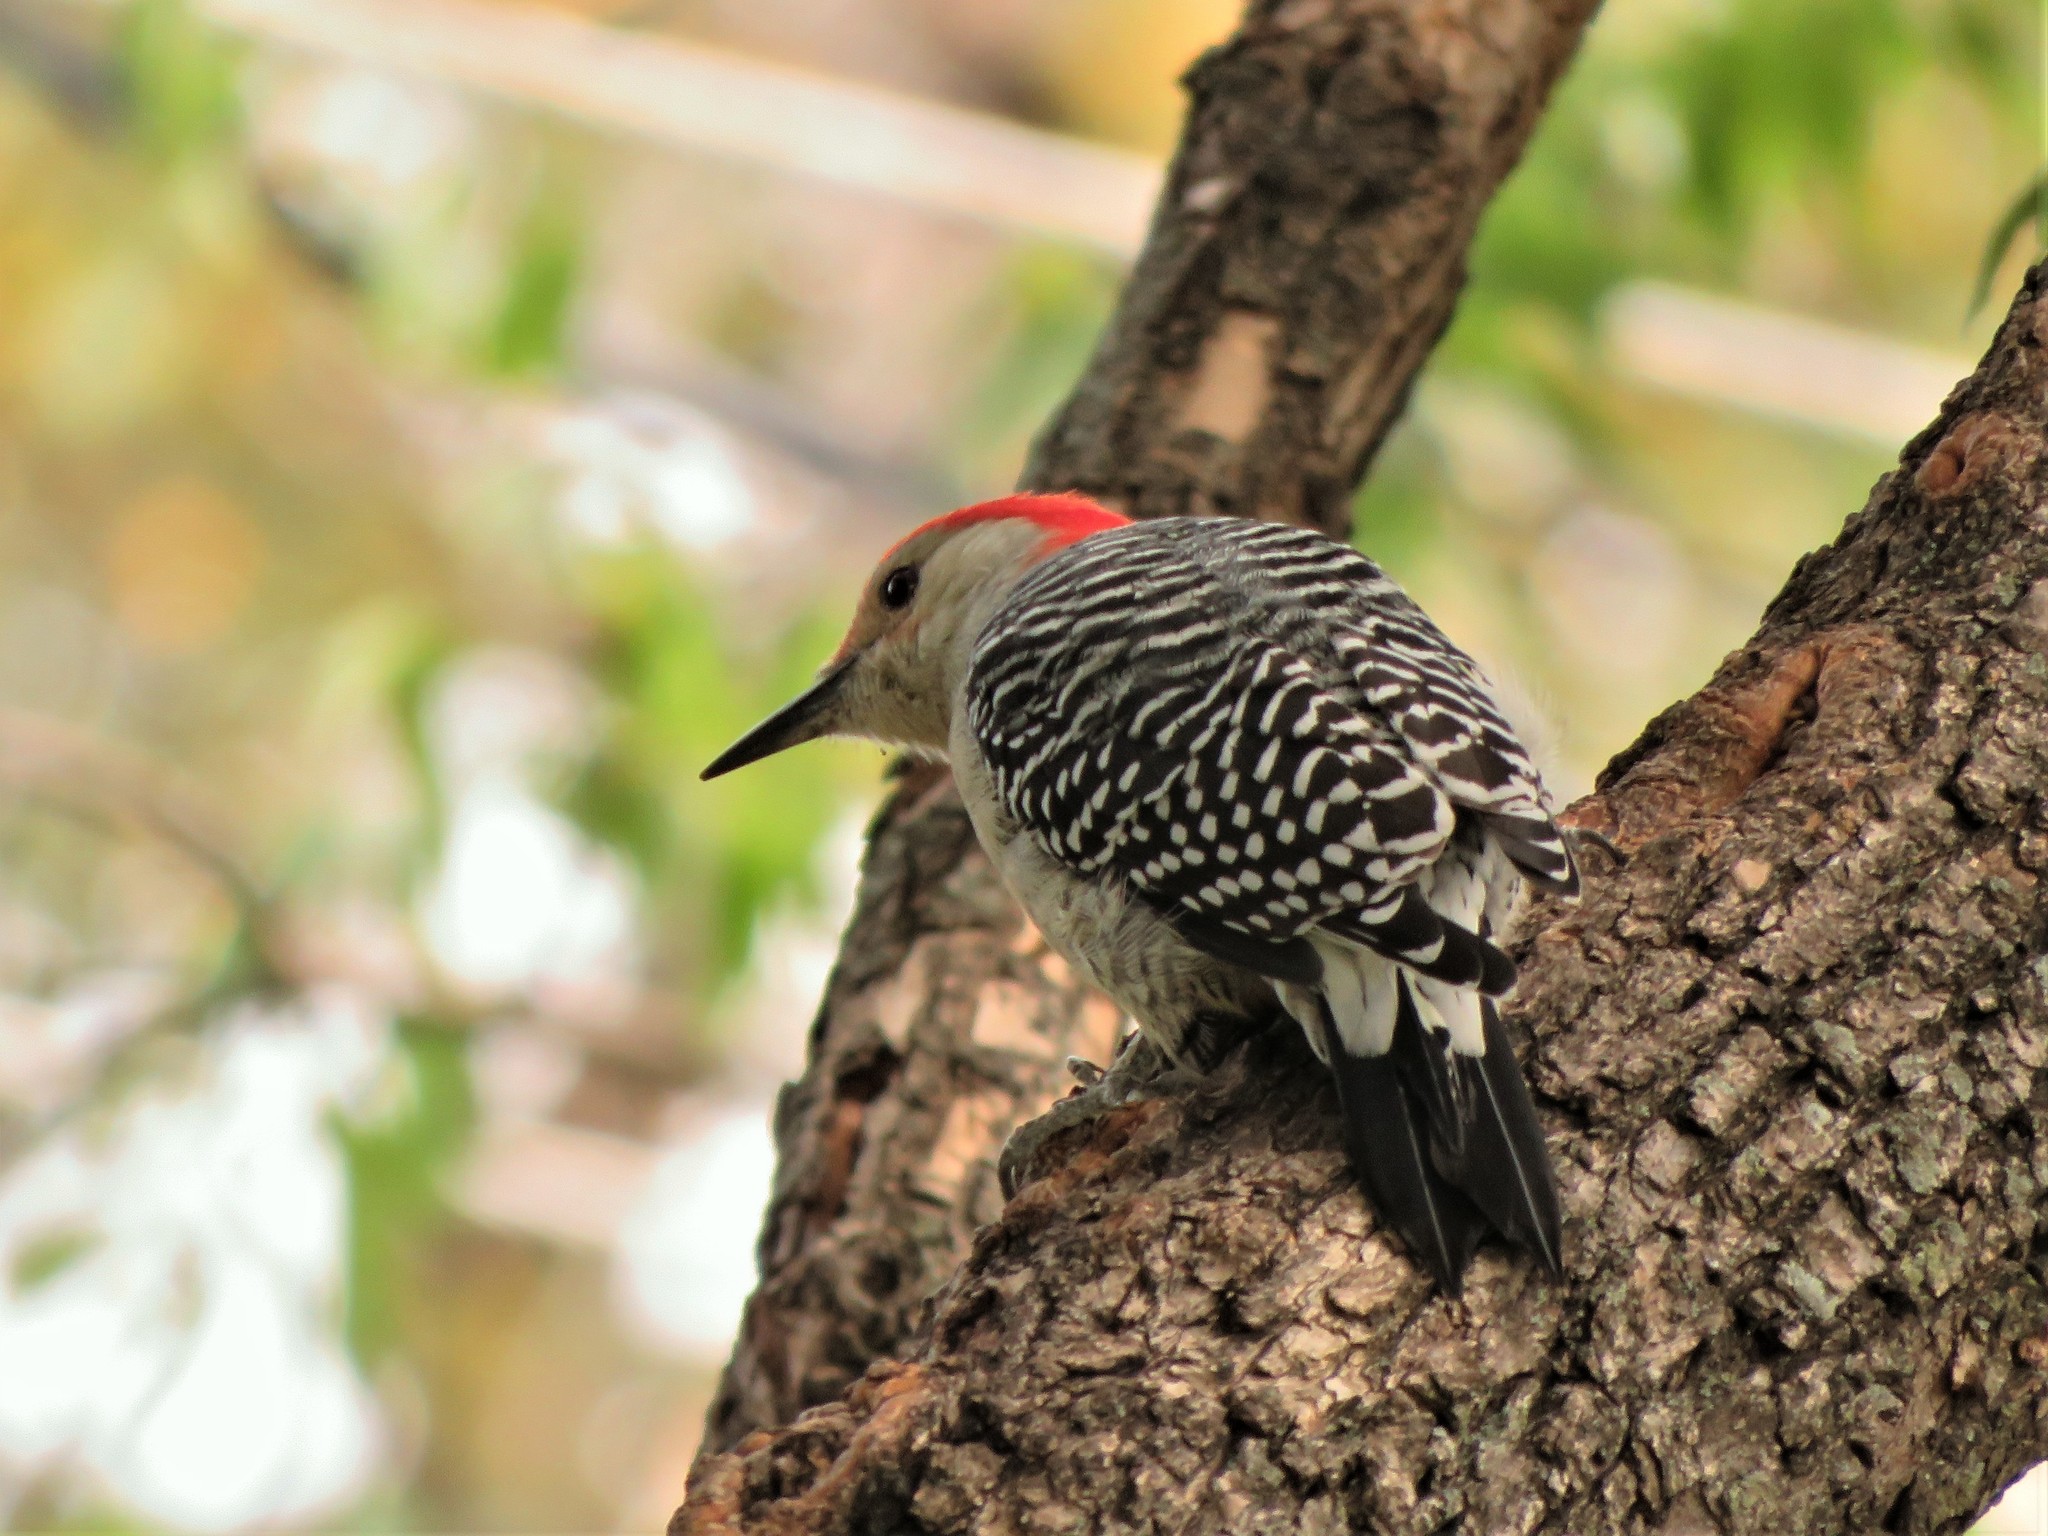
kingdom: Animalia
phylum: Chordata
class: Aves
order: Piciformes
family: Picidae
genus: Melanerpes
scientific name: Melanerpes carolinus
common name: Red-bellied woodpecker
